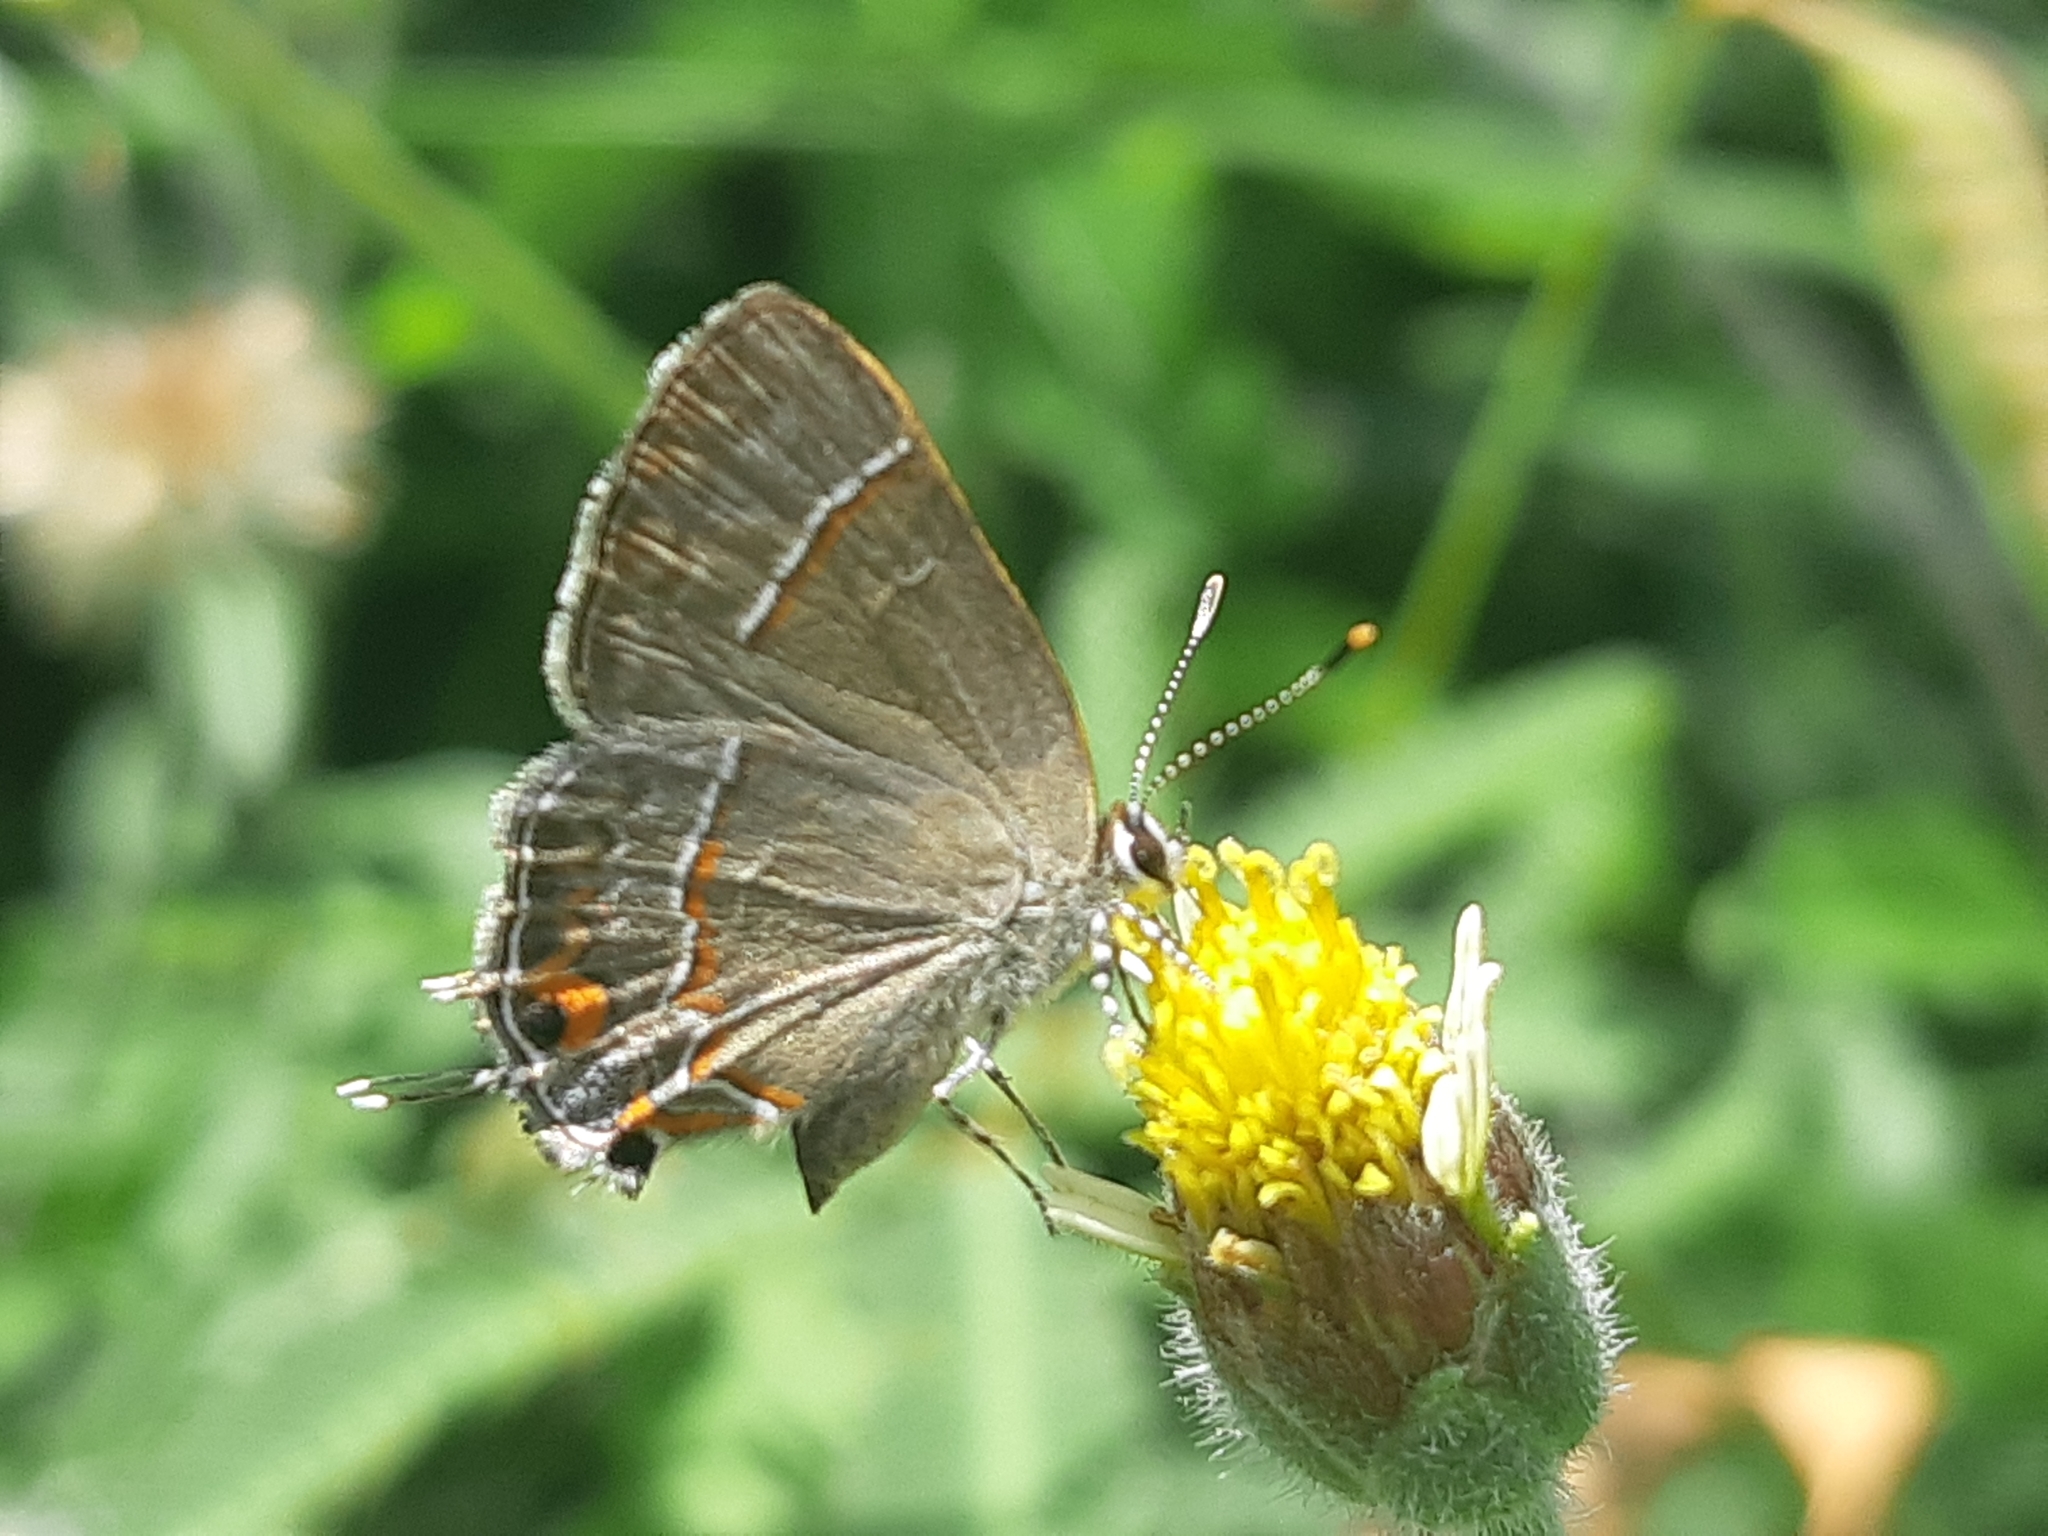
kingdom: Animalia
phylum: Arthropoda
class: Insecta
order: Lepidoptera
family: Lycaenidae
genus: Electrostrymon
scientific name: Electrostrymon endymion
